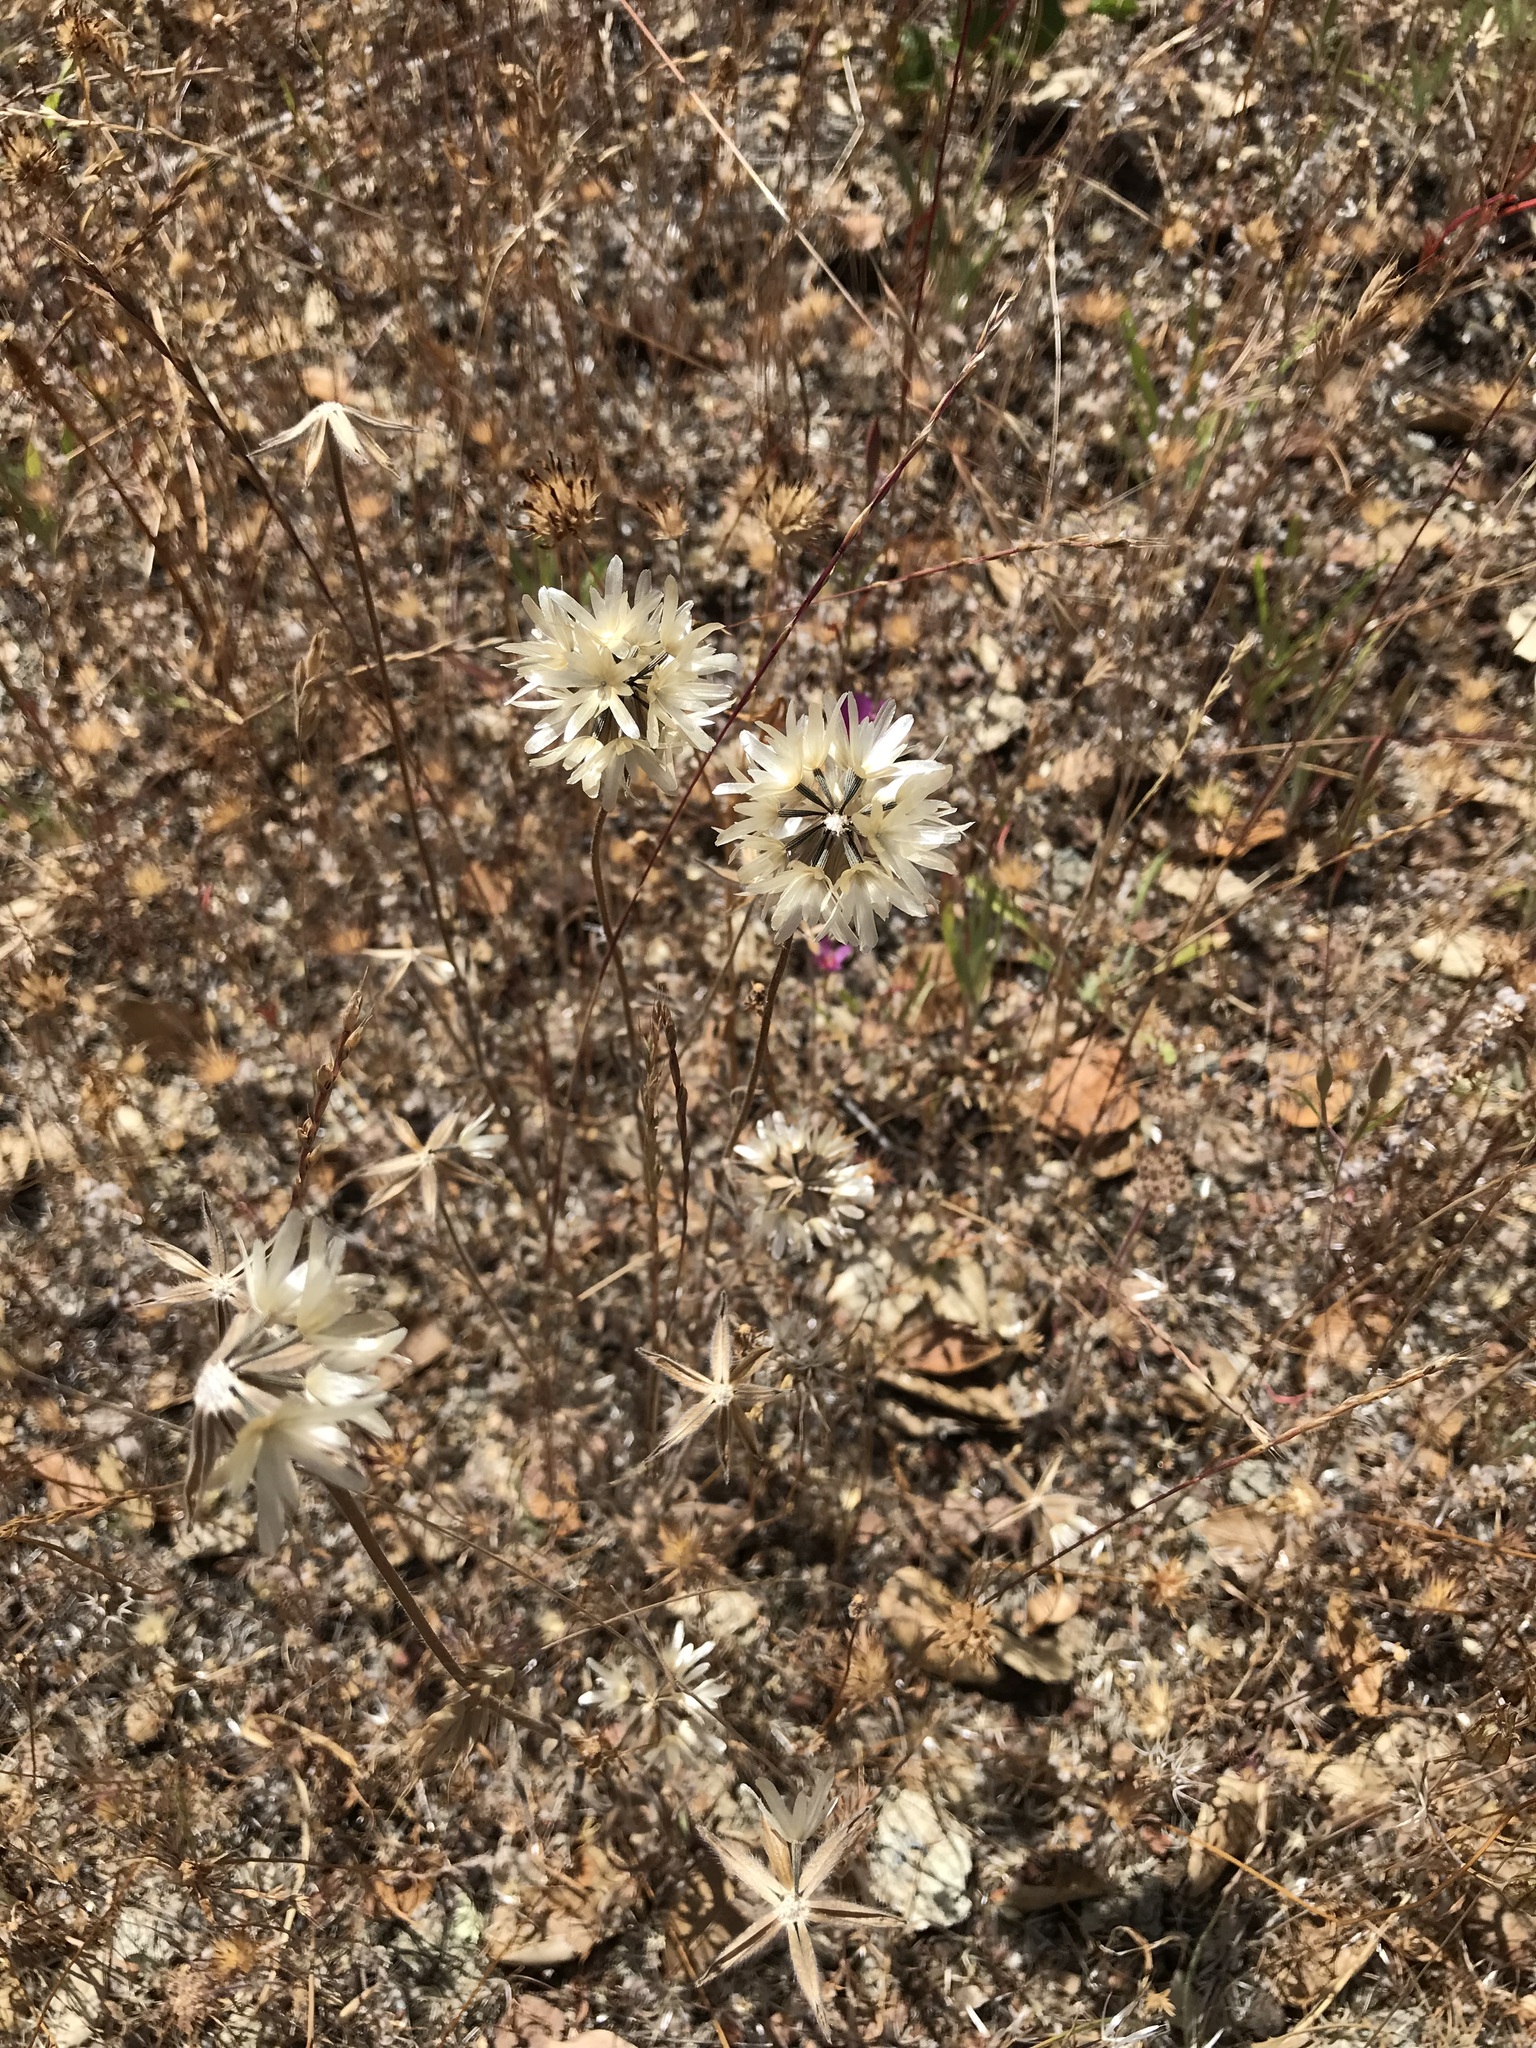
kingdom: Plantae
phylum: Tracheophyta
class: Magnoliopsida
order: Asterales
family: Asteraceae
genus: Achyrachaena
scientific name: Achyrachaena mollis
